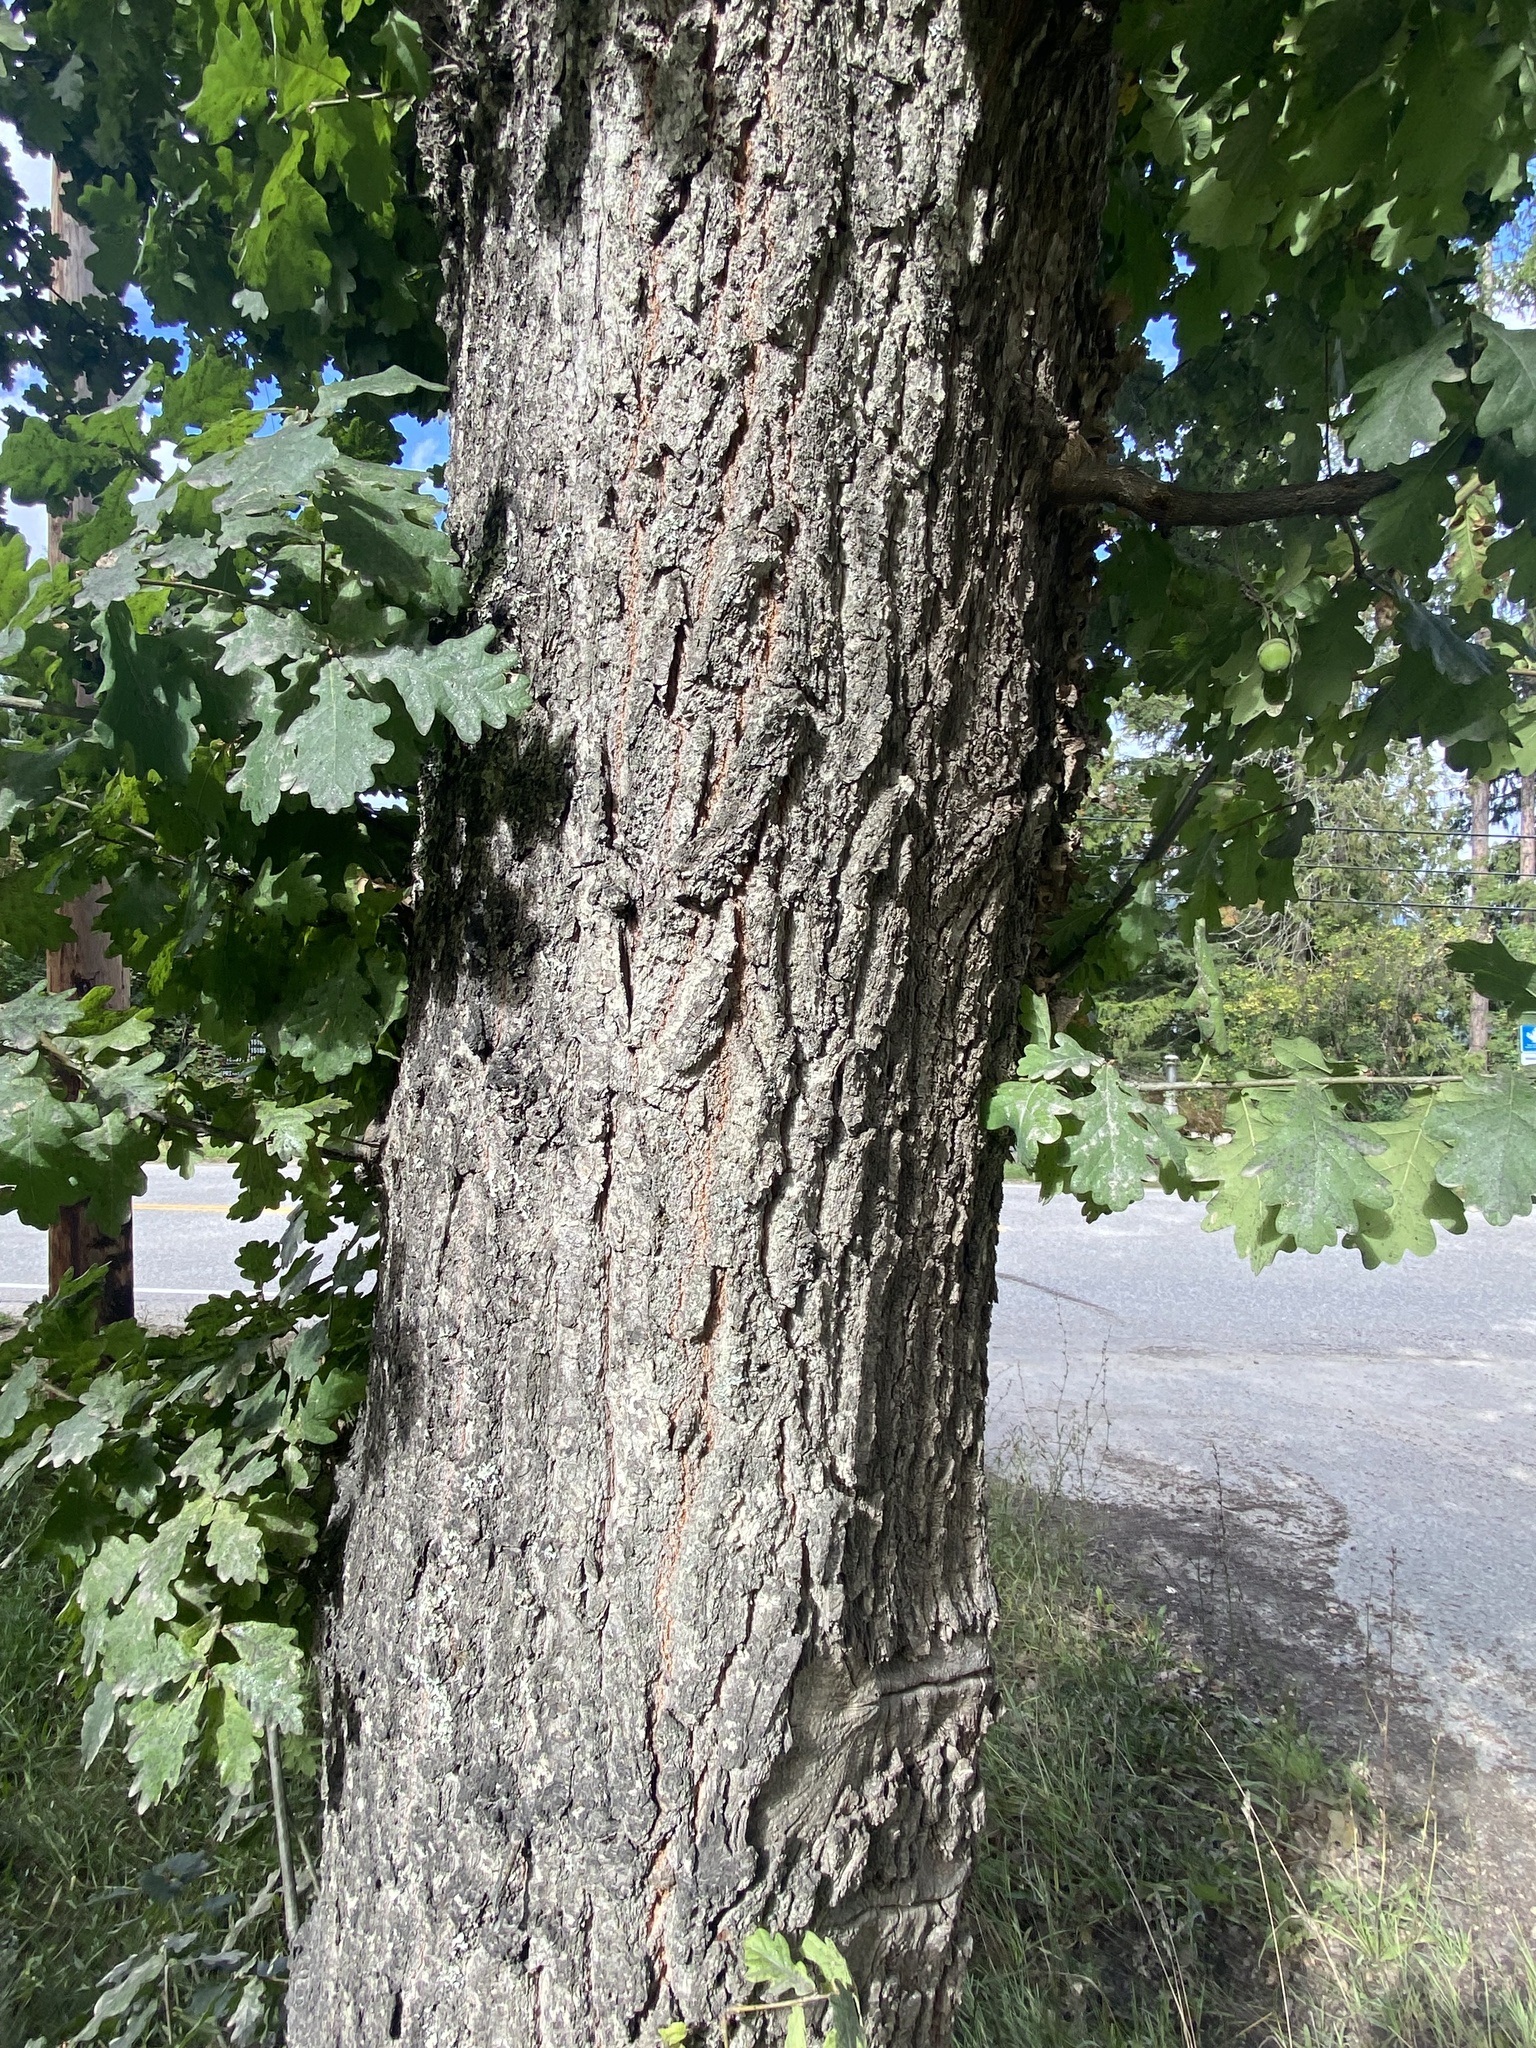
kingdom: Plantae
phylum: Tracheophyta
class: Magnoliopsida
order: Fagales
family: Fagaceae
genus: Quercus
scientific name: Quercus robur
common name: Pedunculate oak
